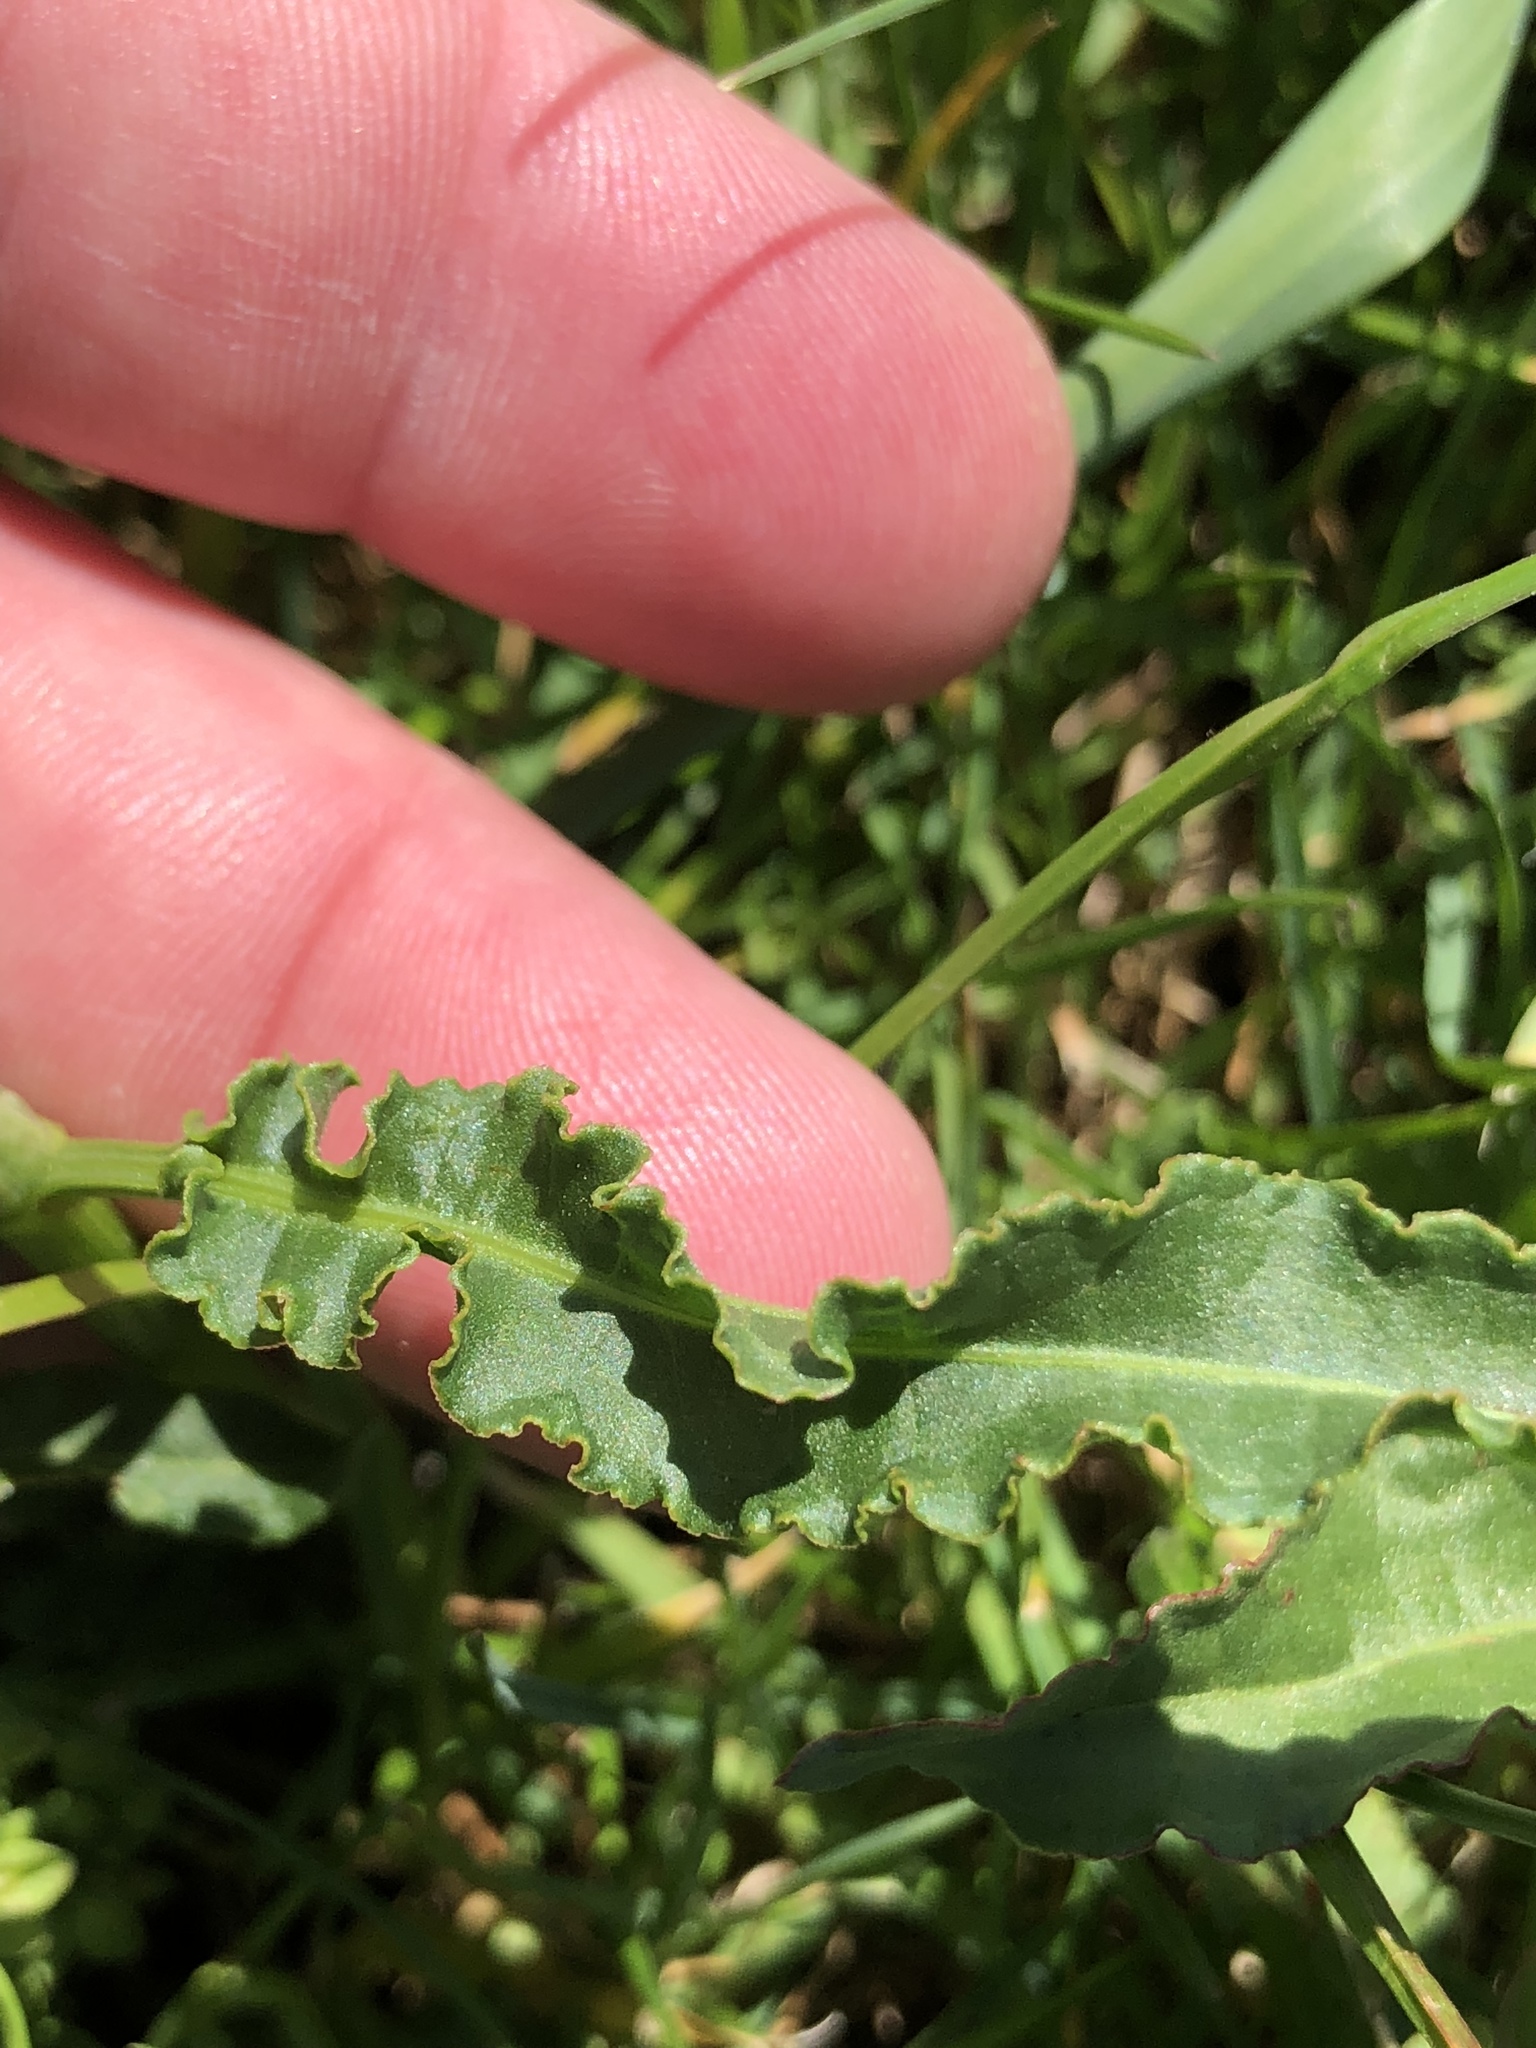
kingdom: Plantae
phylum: Tracheophyta
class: Magnoliopsida
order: Caryophyllales
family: Polygonaceae
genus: Rumex
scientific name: Rumex crispus
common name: Curled dock
